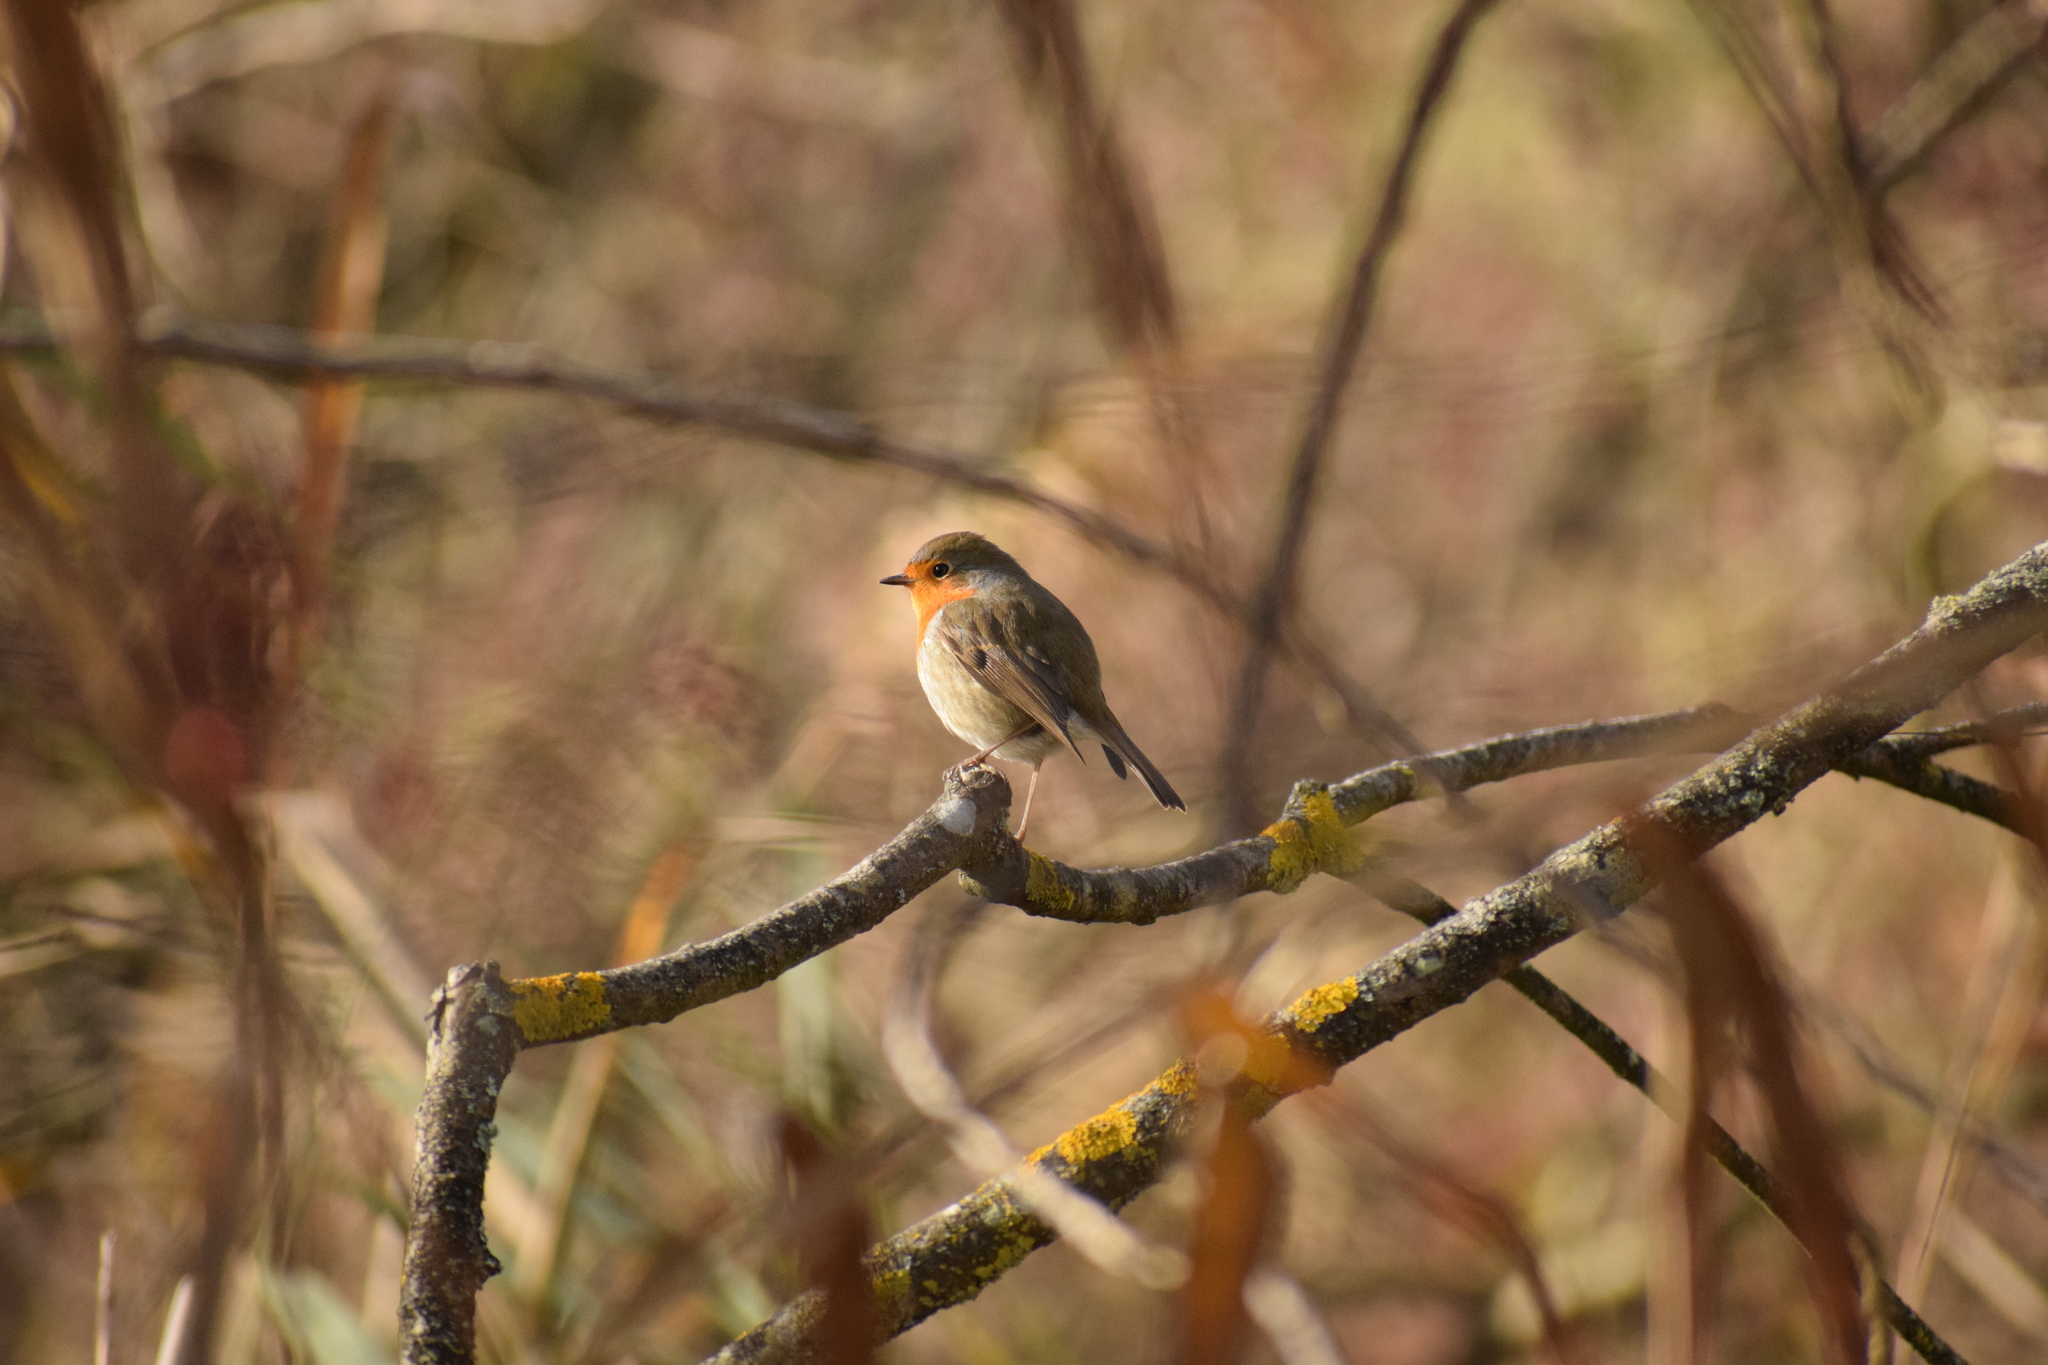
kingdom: Animalia
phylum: Chordata
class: Aves
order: Passeriformes
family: Muscicapidae
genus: Erithacus
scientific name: Erithacus rubecula
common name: European robin
